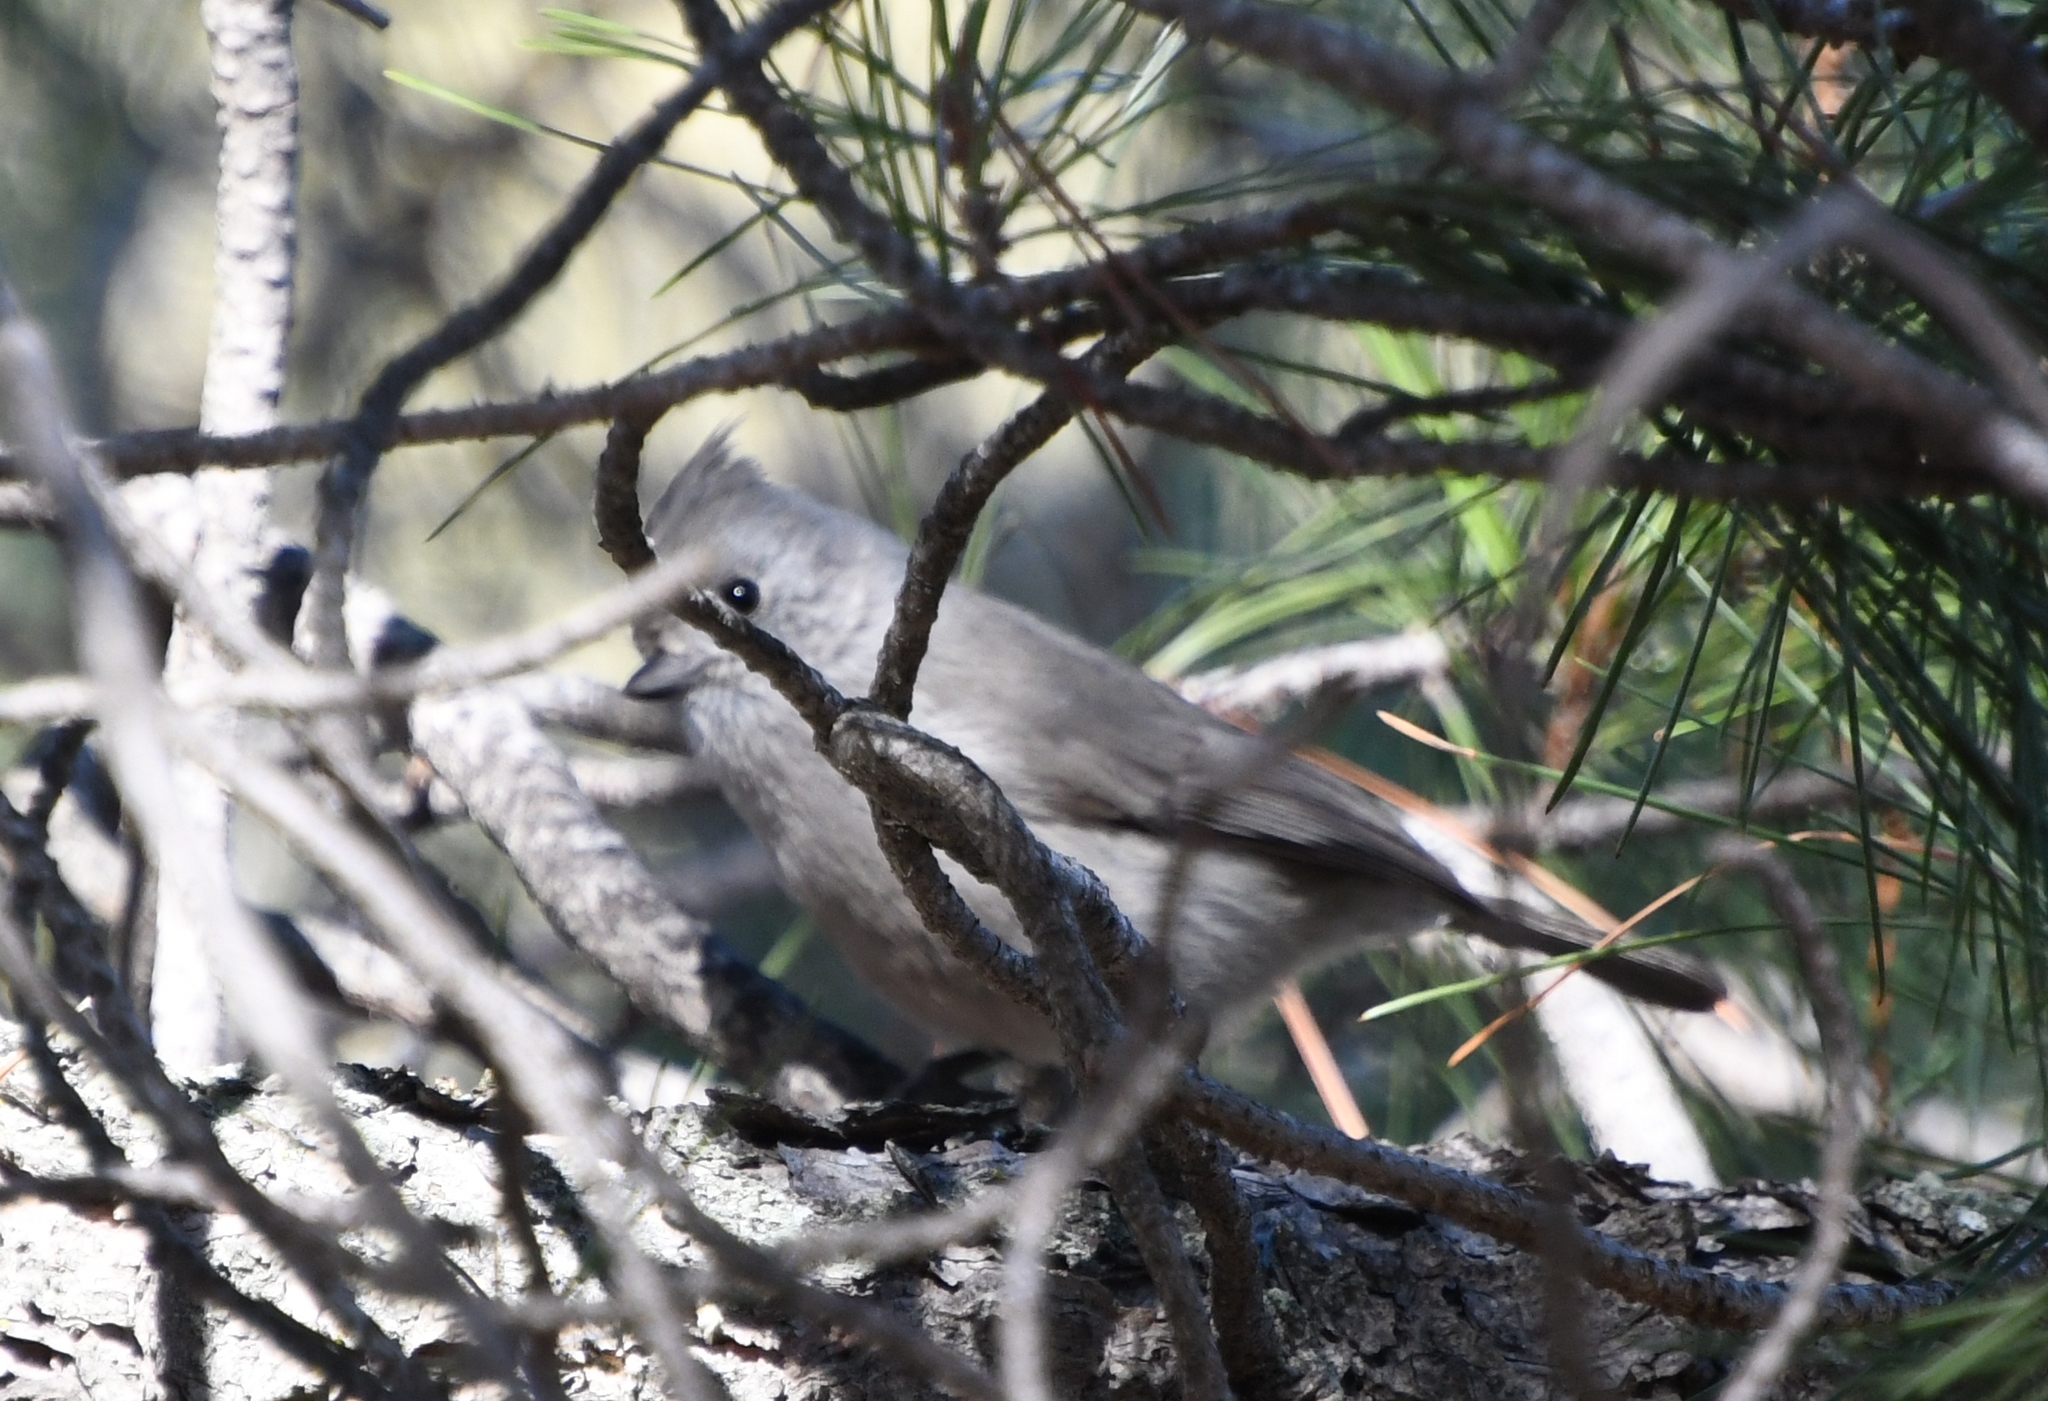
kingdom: Animalia
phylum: Chordata
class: Aves
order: Passeriformes
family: Paridae
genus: Baeolophus
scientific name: Baeolophus inornatus
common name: Oak titmouse
